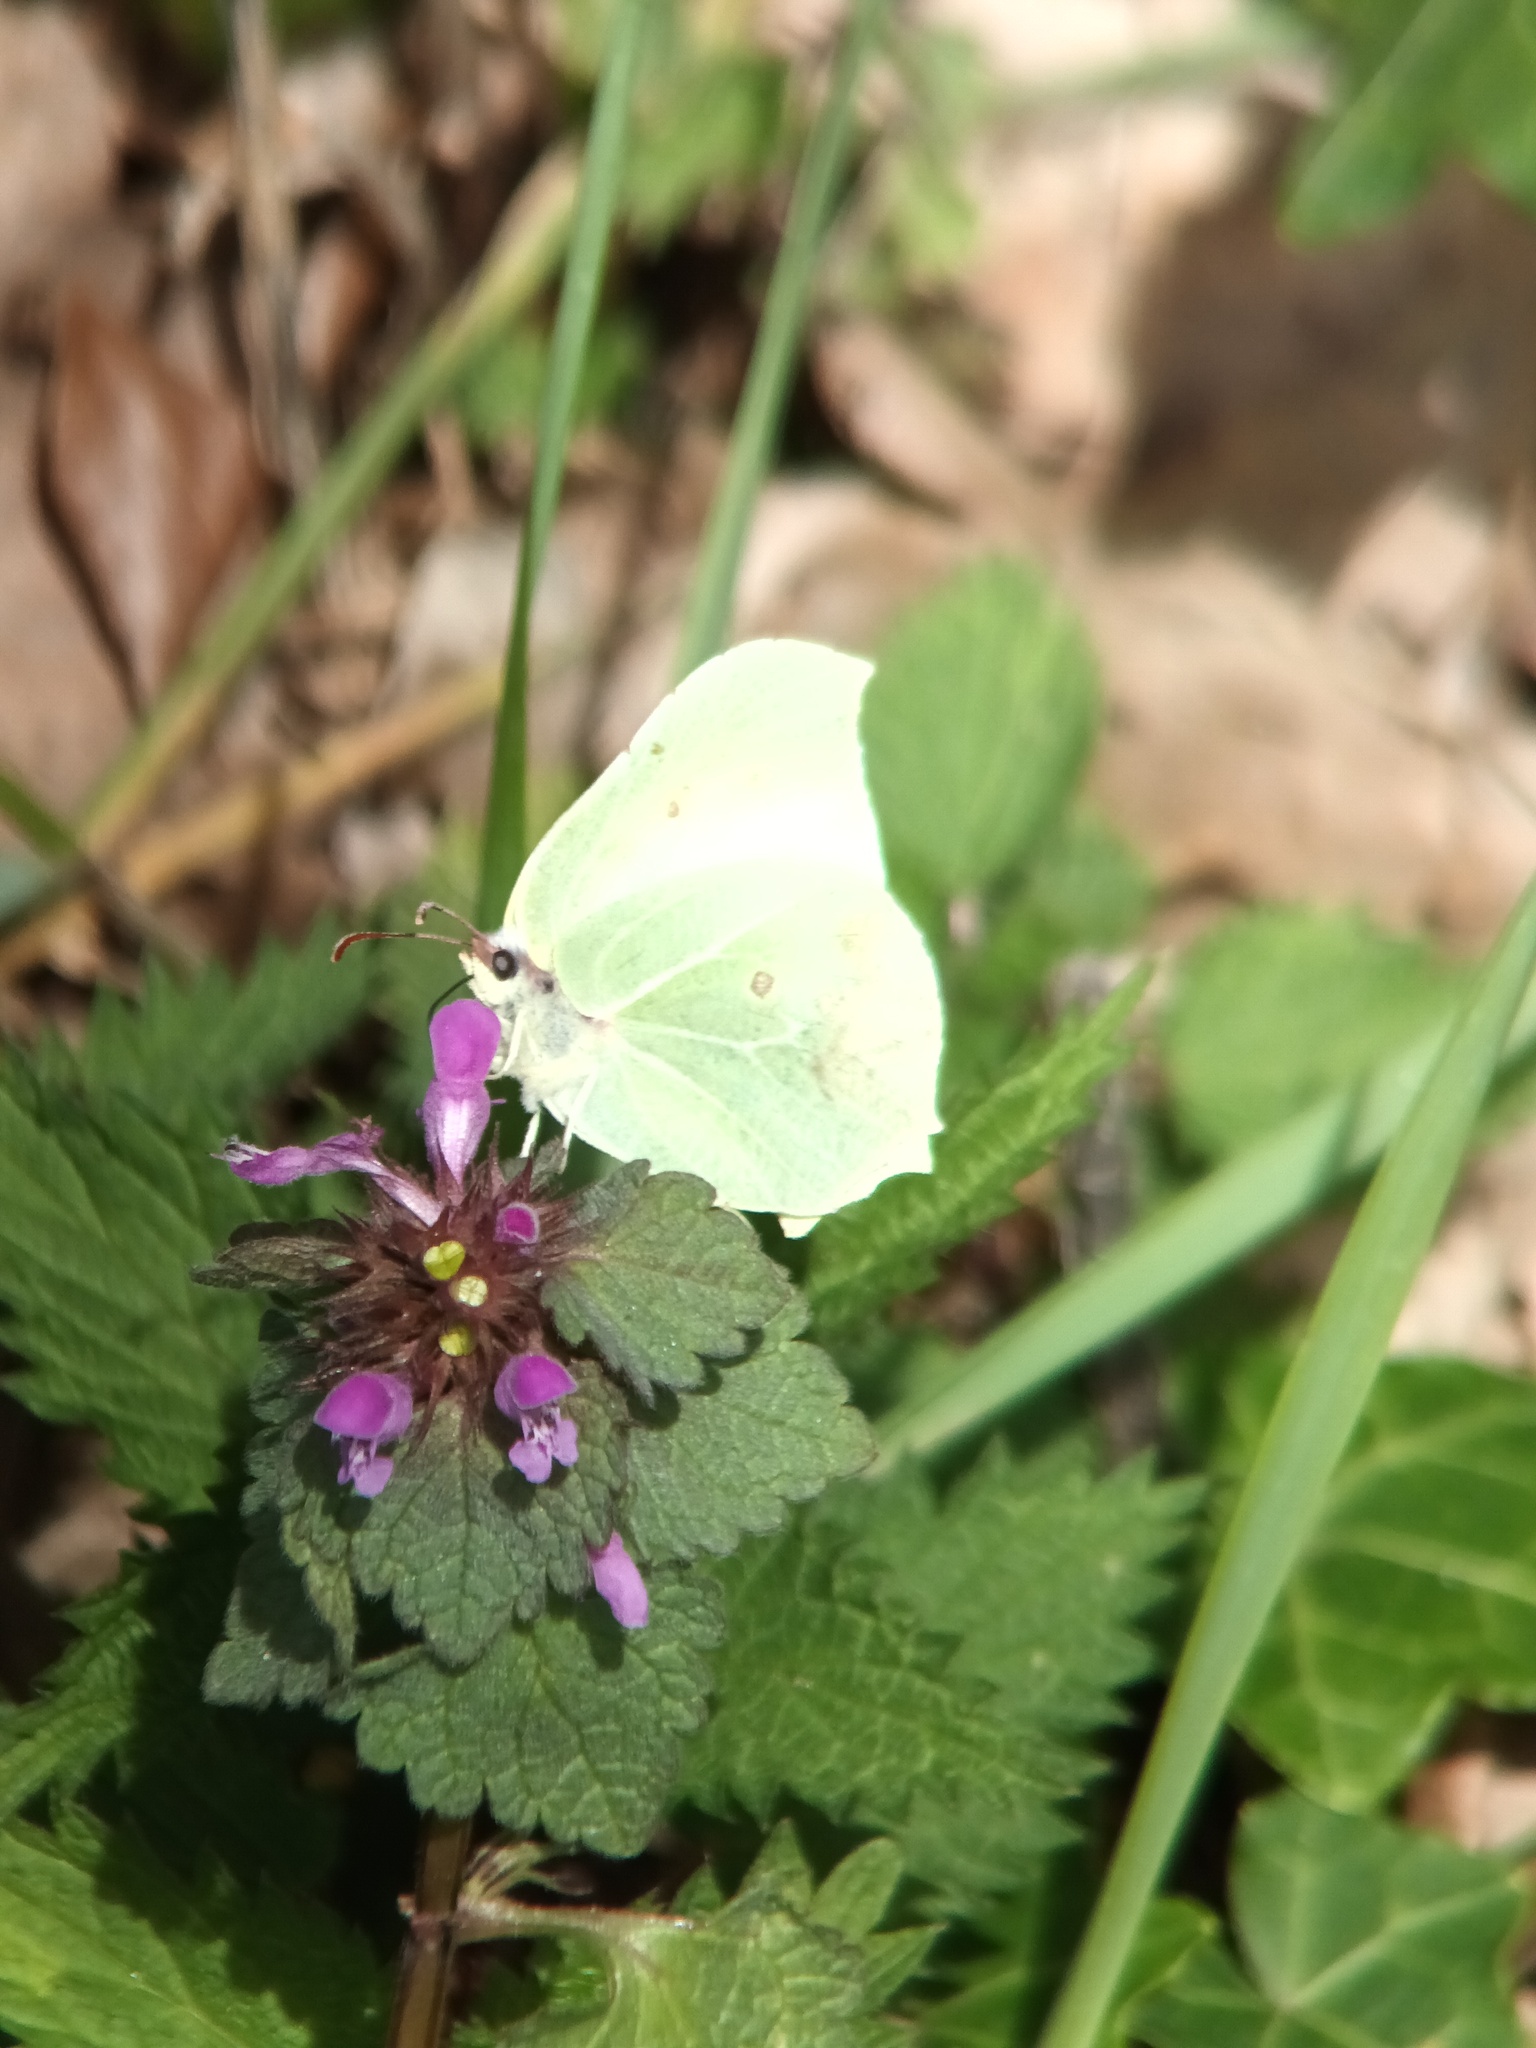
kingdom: Animalia
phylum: Arthropoda
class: Insecta
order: Lepidoptera
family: Pieridae
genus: Gonepteryx
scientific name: Gonepteryx rhamni
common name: Brimstone
